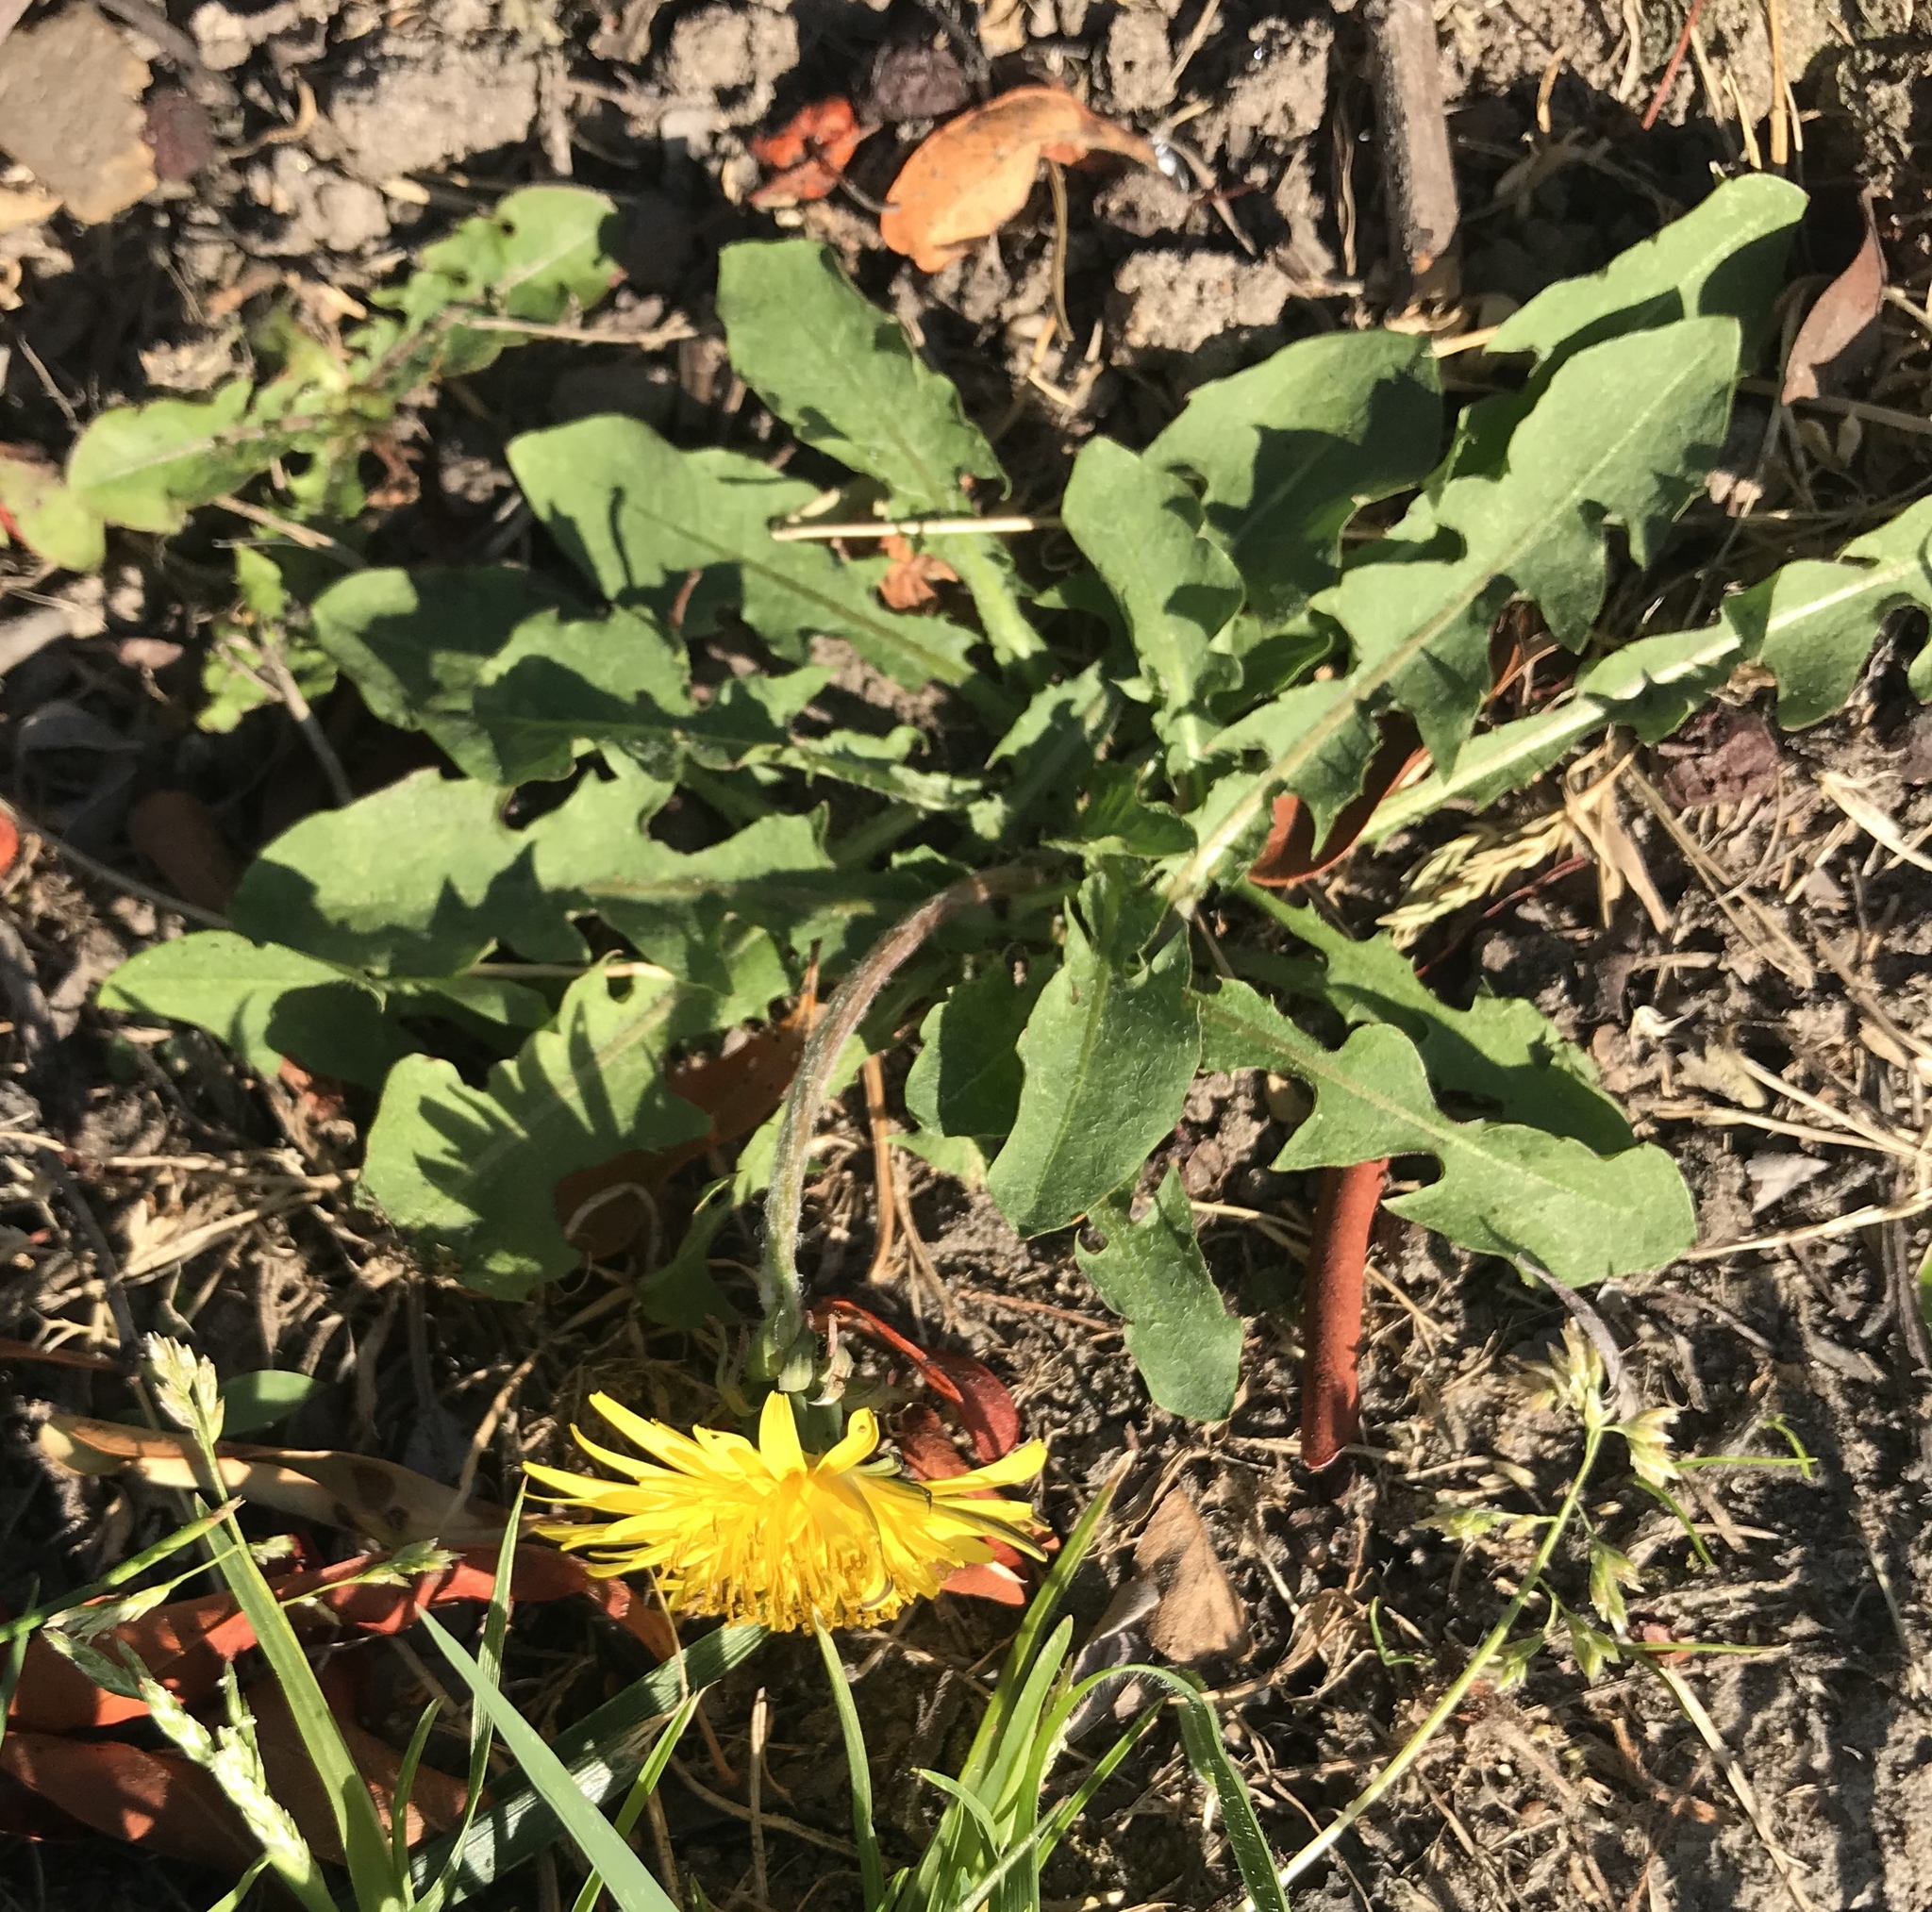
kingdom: Plantae
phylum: Tracheophyta
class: Magnoliopsida
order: Asterales
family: Asteraceae
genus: Taraxacum
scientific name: Taraxacum officinale
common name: Common dandelion
